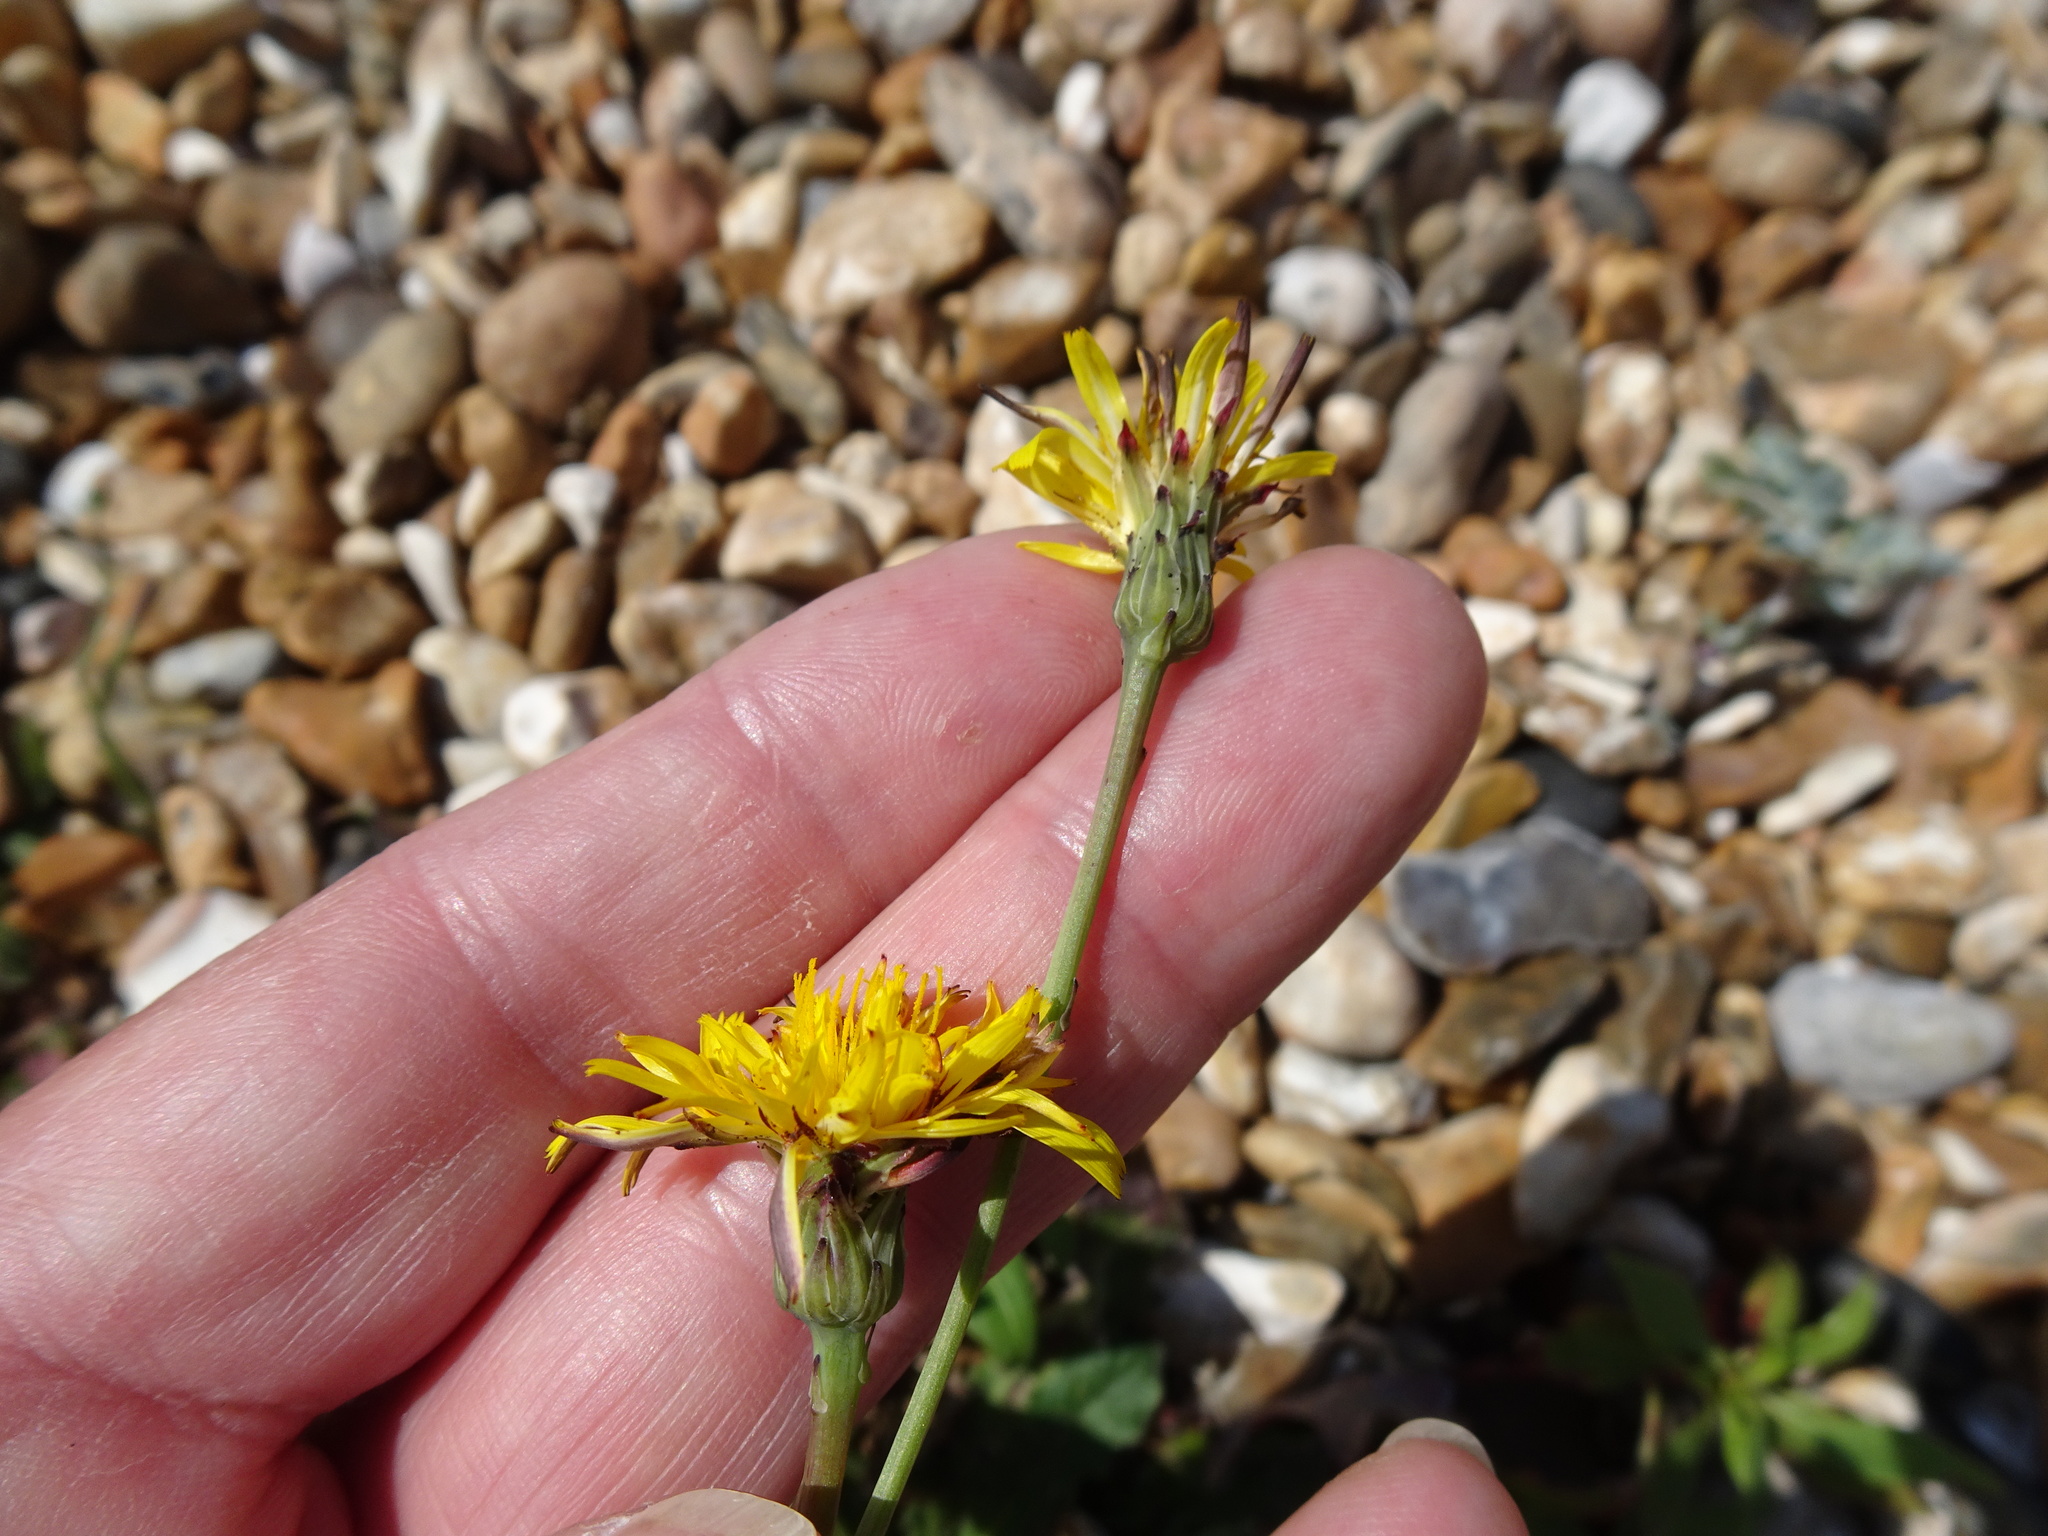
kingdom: Plantae
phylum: Tracheophyta
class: Magnoliopsida
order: Asterales
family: Asteraceae
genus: Hypochaeris
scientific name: Hypochaeris radicata
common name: Flatweed
